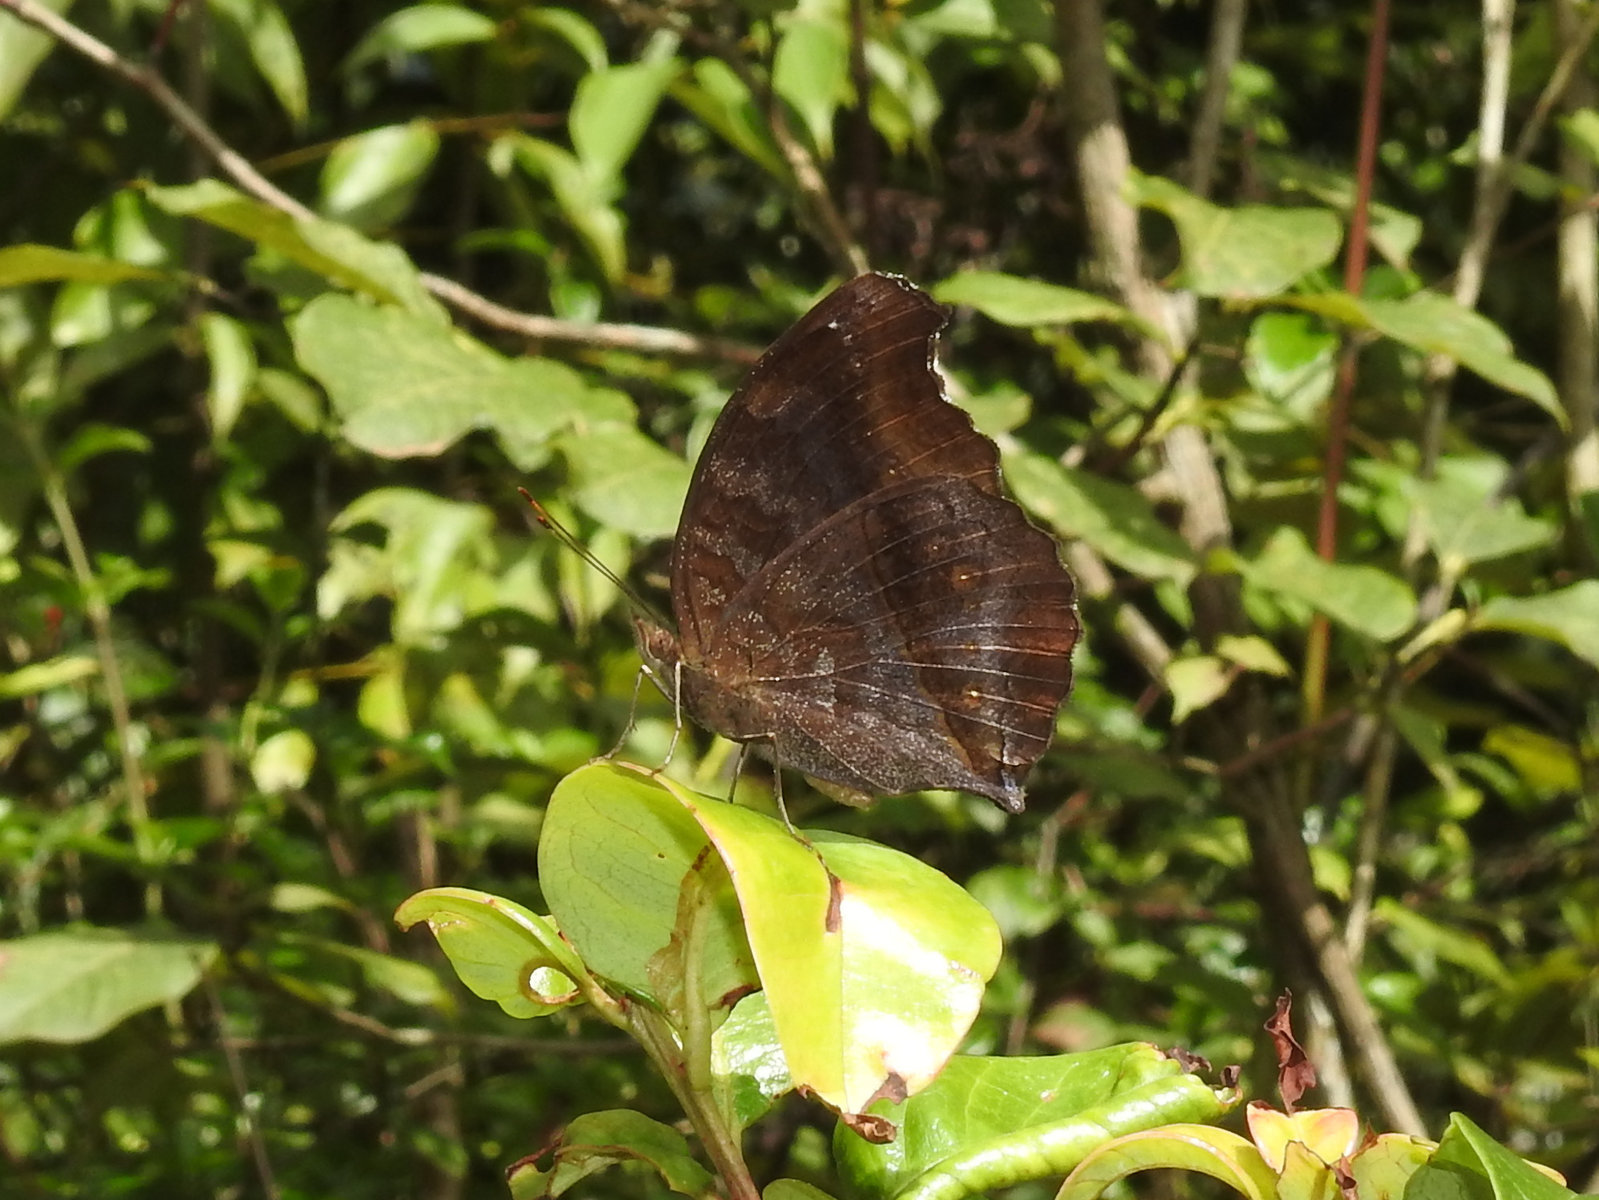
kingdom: Animalia
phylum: Arthropoda
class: Insecta
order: Lepidoptera
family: Nymphalidae
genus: Junonia
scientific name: Junonia iphita
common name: Chocolate pansy
